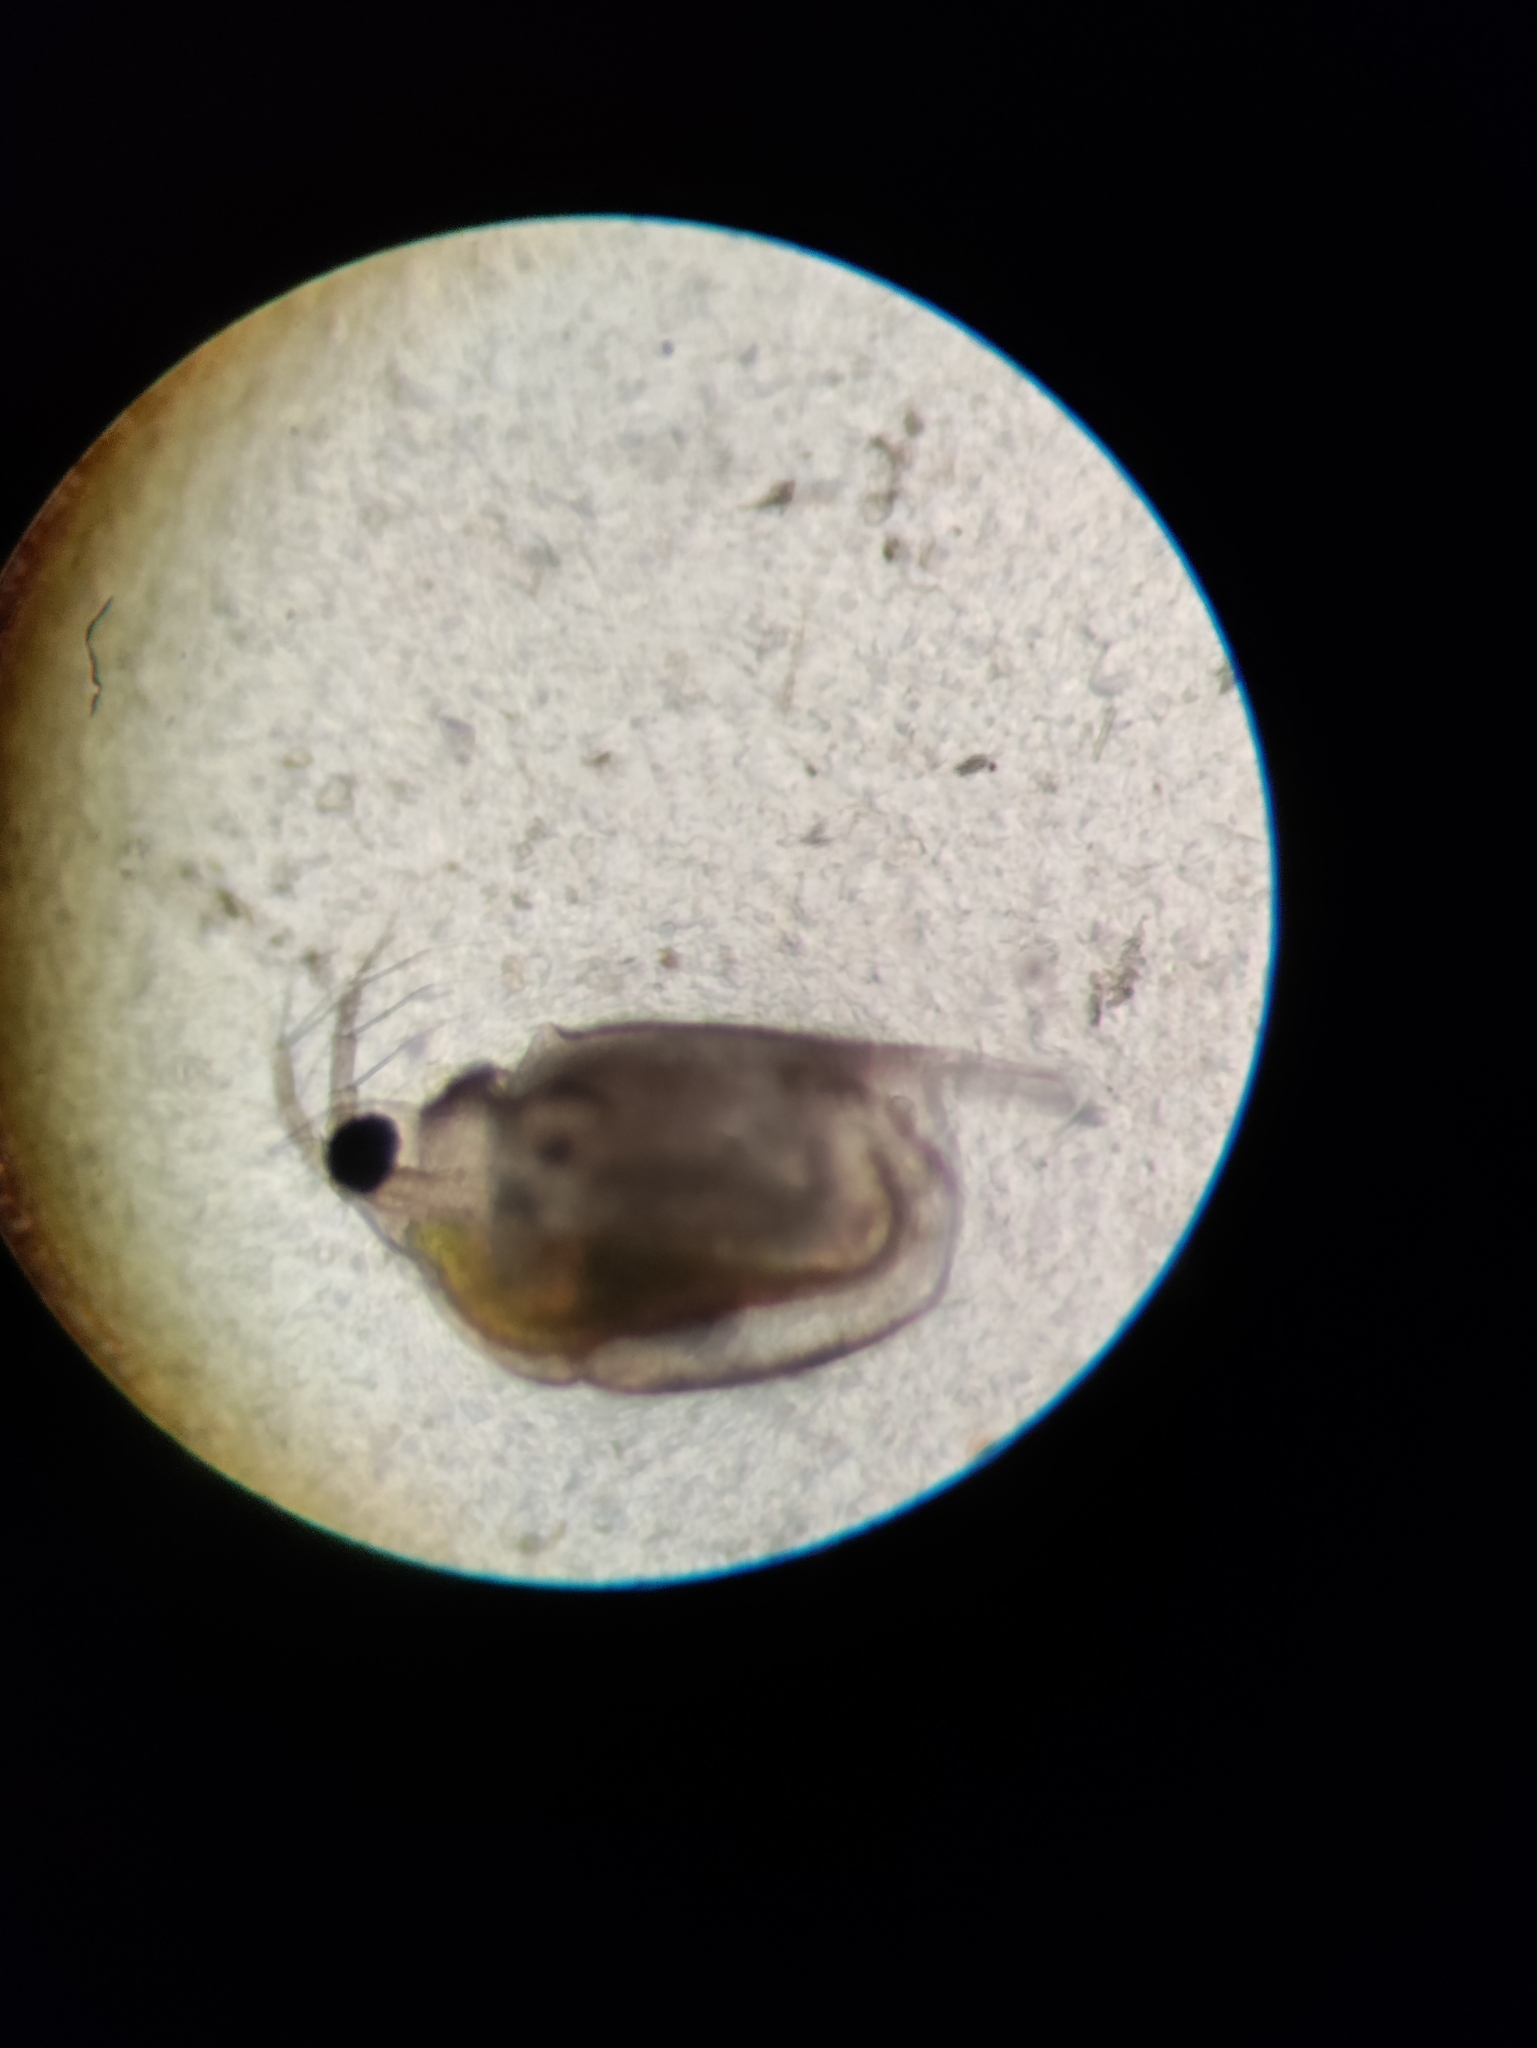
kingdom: Animalia
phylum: Arthropoda
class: Branchiopoda
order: Diplostraca
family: Daphniidae
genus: Scapholeberis
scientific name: Scapholeberis mucronata
